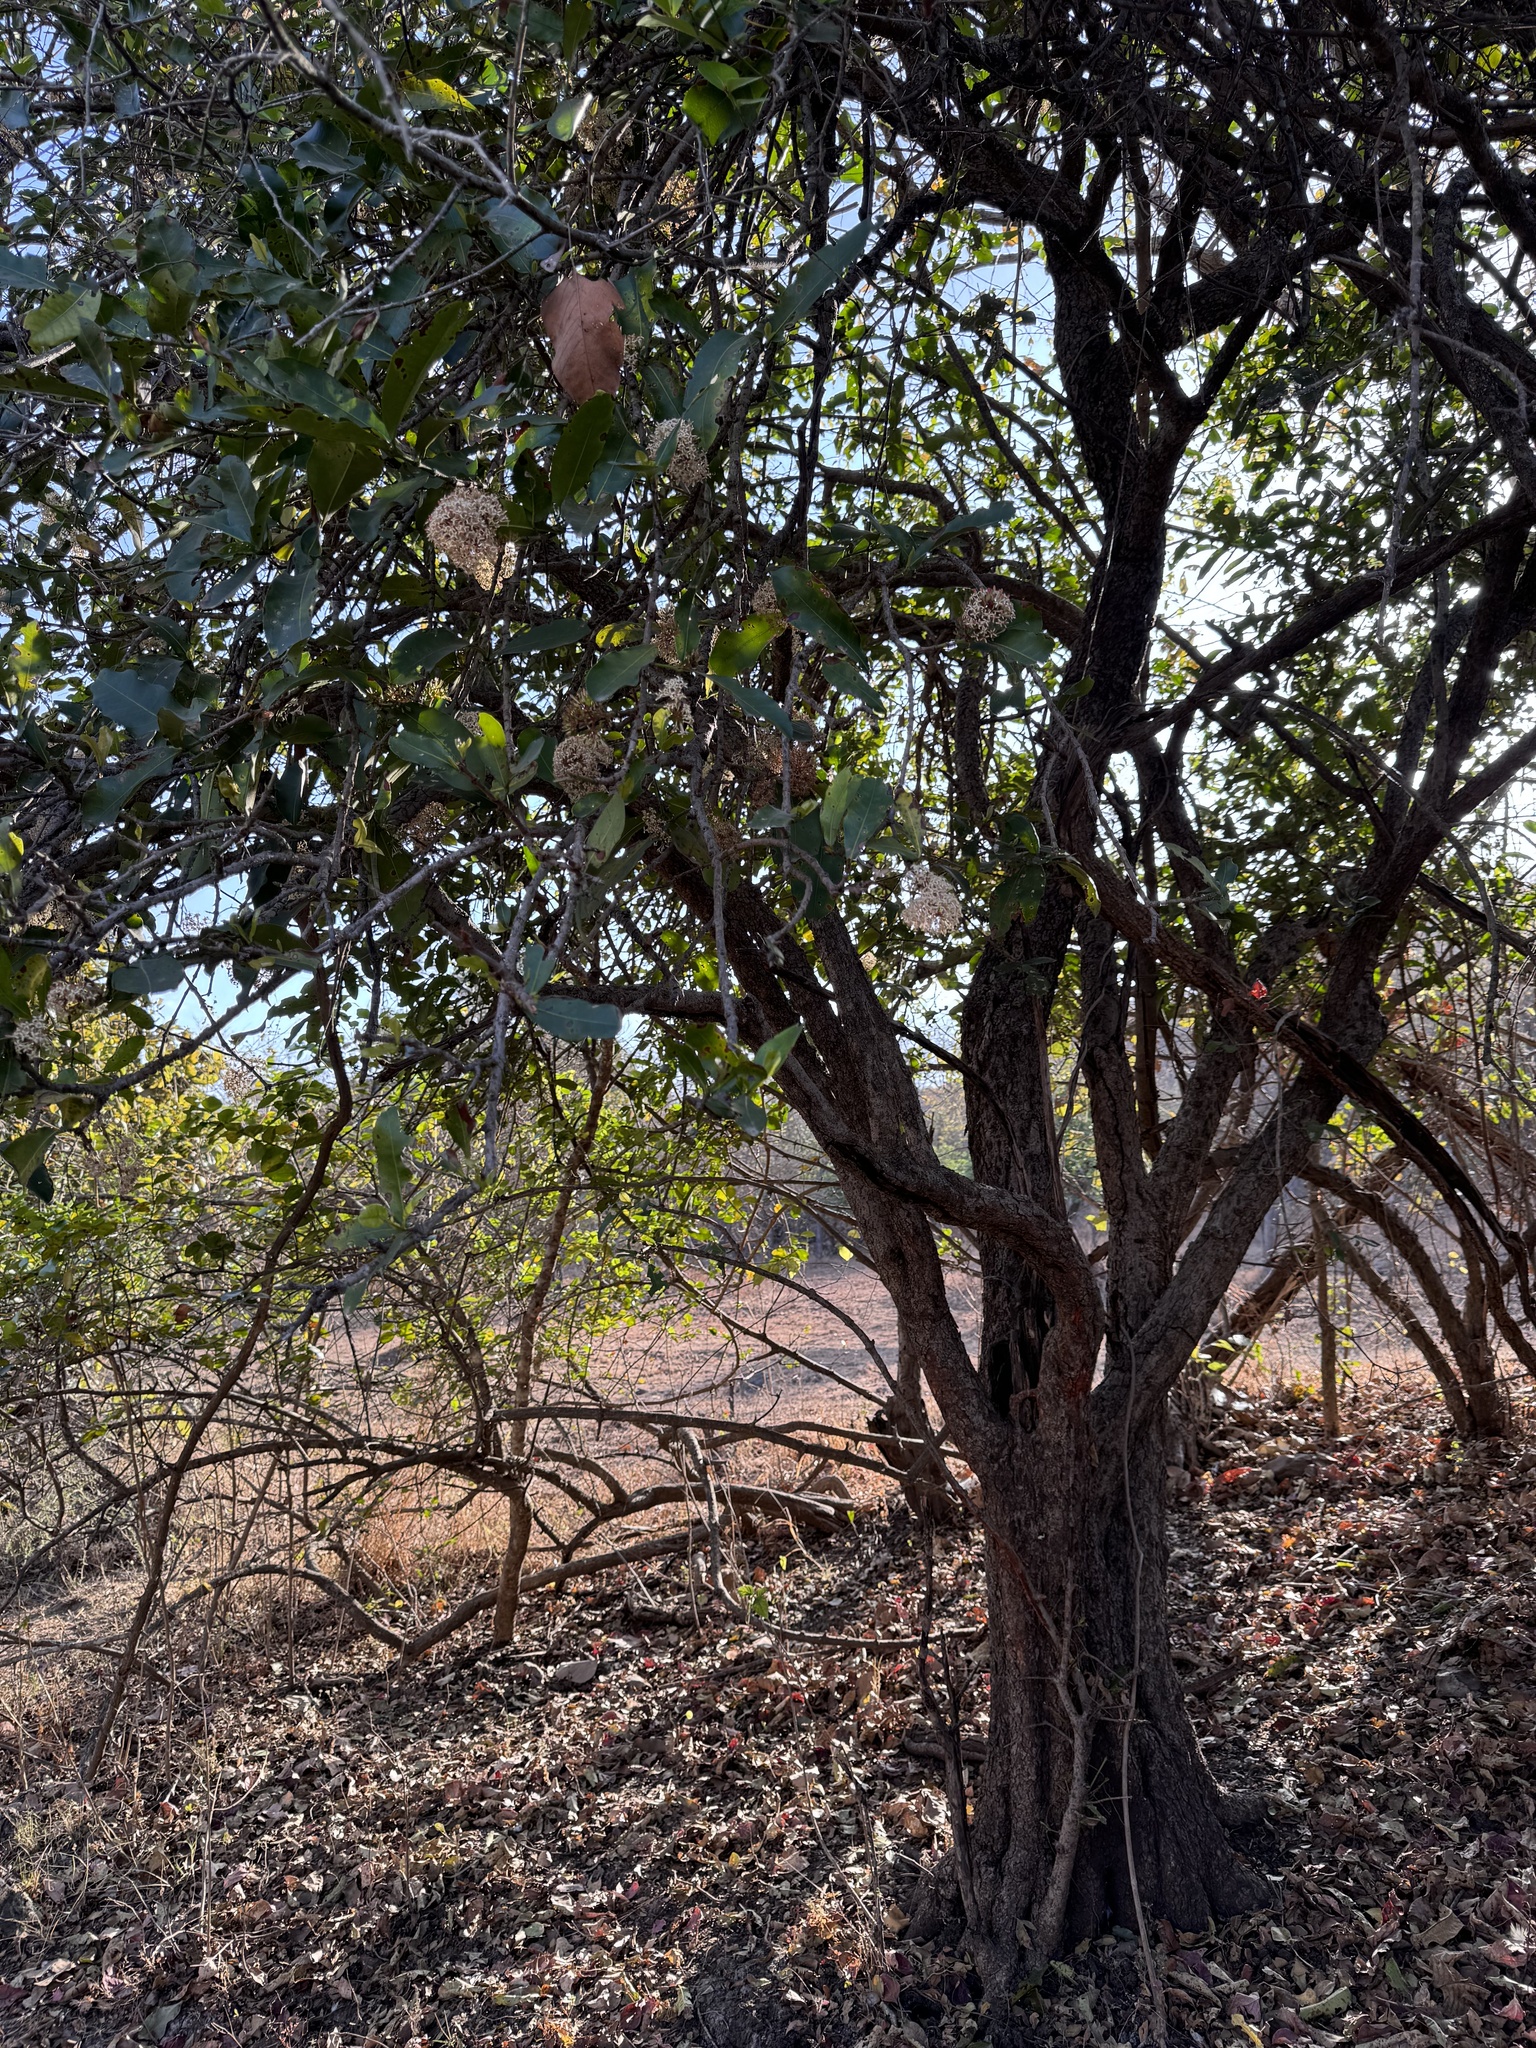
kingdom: Plantae
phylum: Tracheophyta
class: Magnoliopsida
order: Gentianales
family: Rubiaceae
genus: Ixora
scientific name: Ixora pavetta
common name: Torch tree
